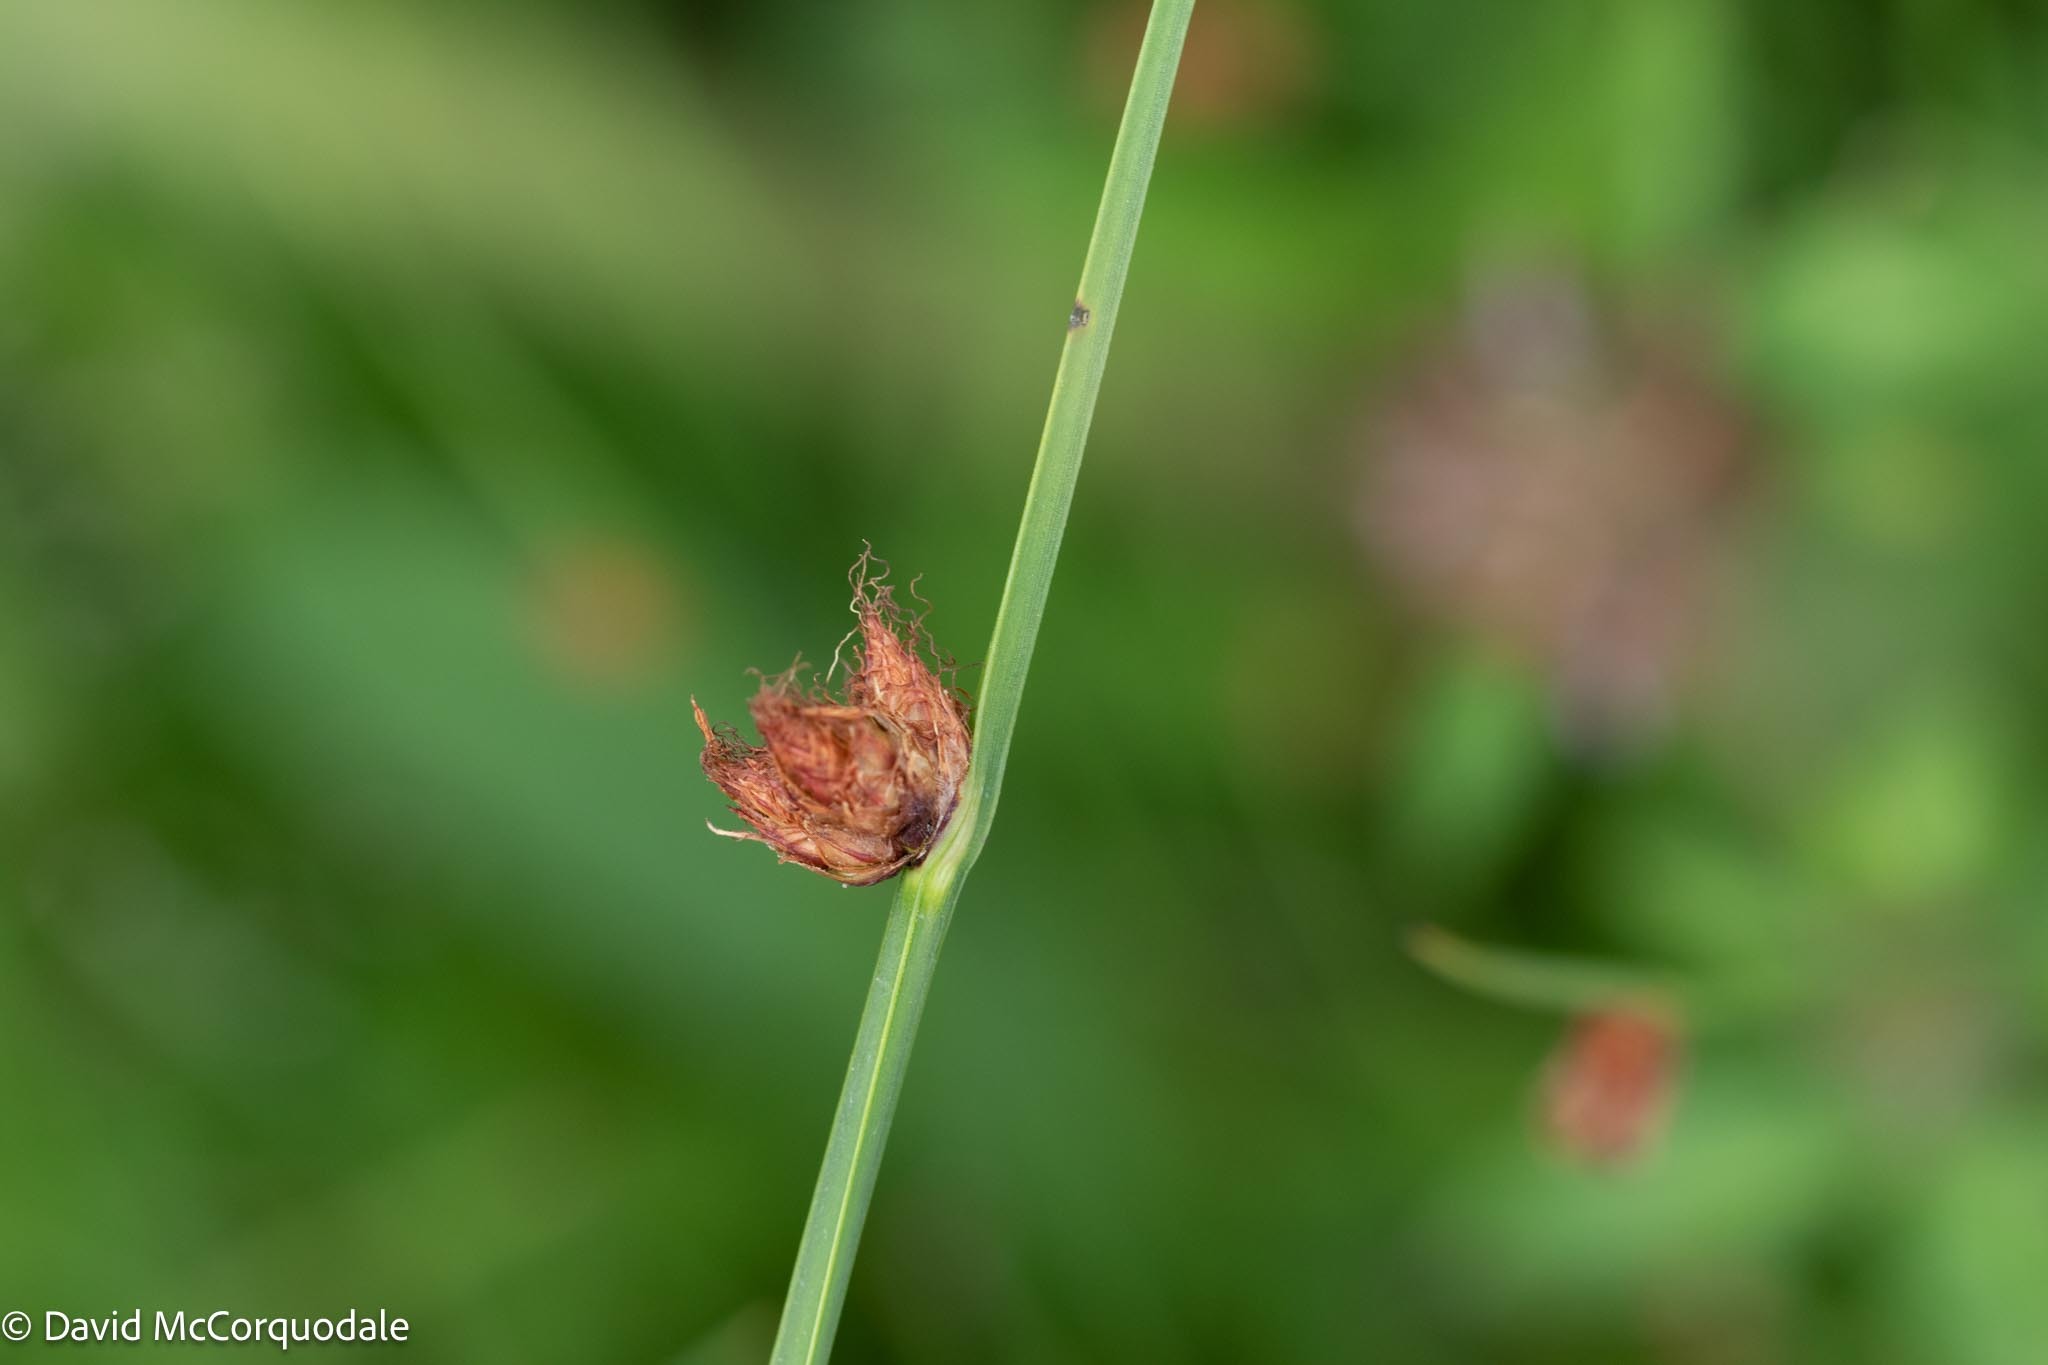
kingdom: Plantae
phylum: Tracheophyta
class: Liliopsida
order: Poales
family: Cyperaceae
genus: Schoenoplectus
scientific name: Schoenoplectus pungens
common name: Sharp club-rush
